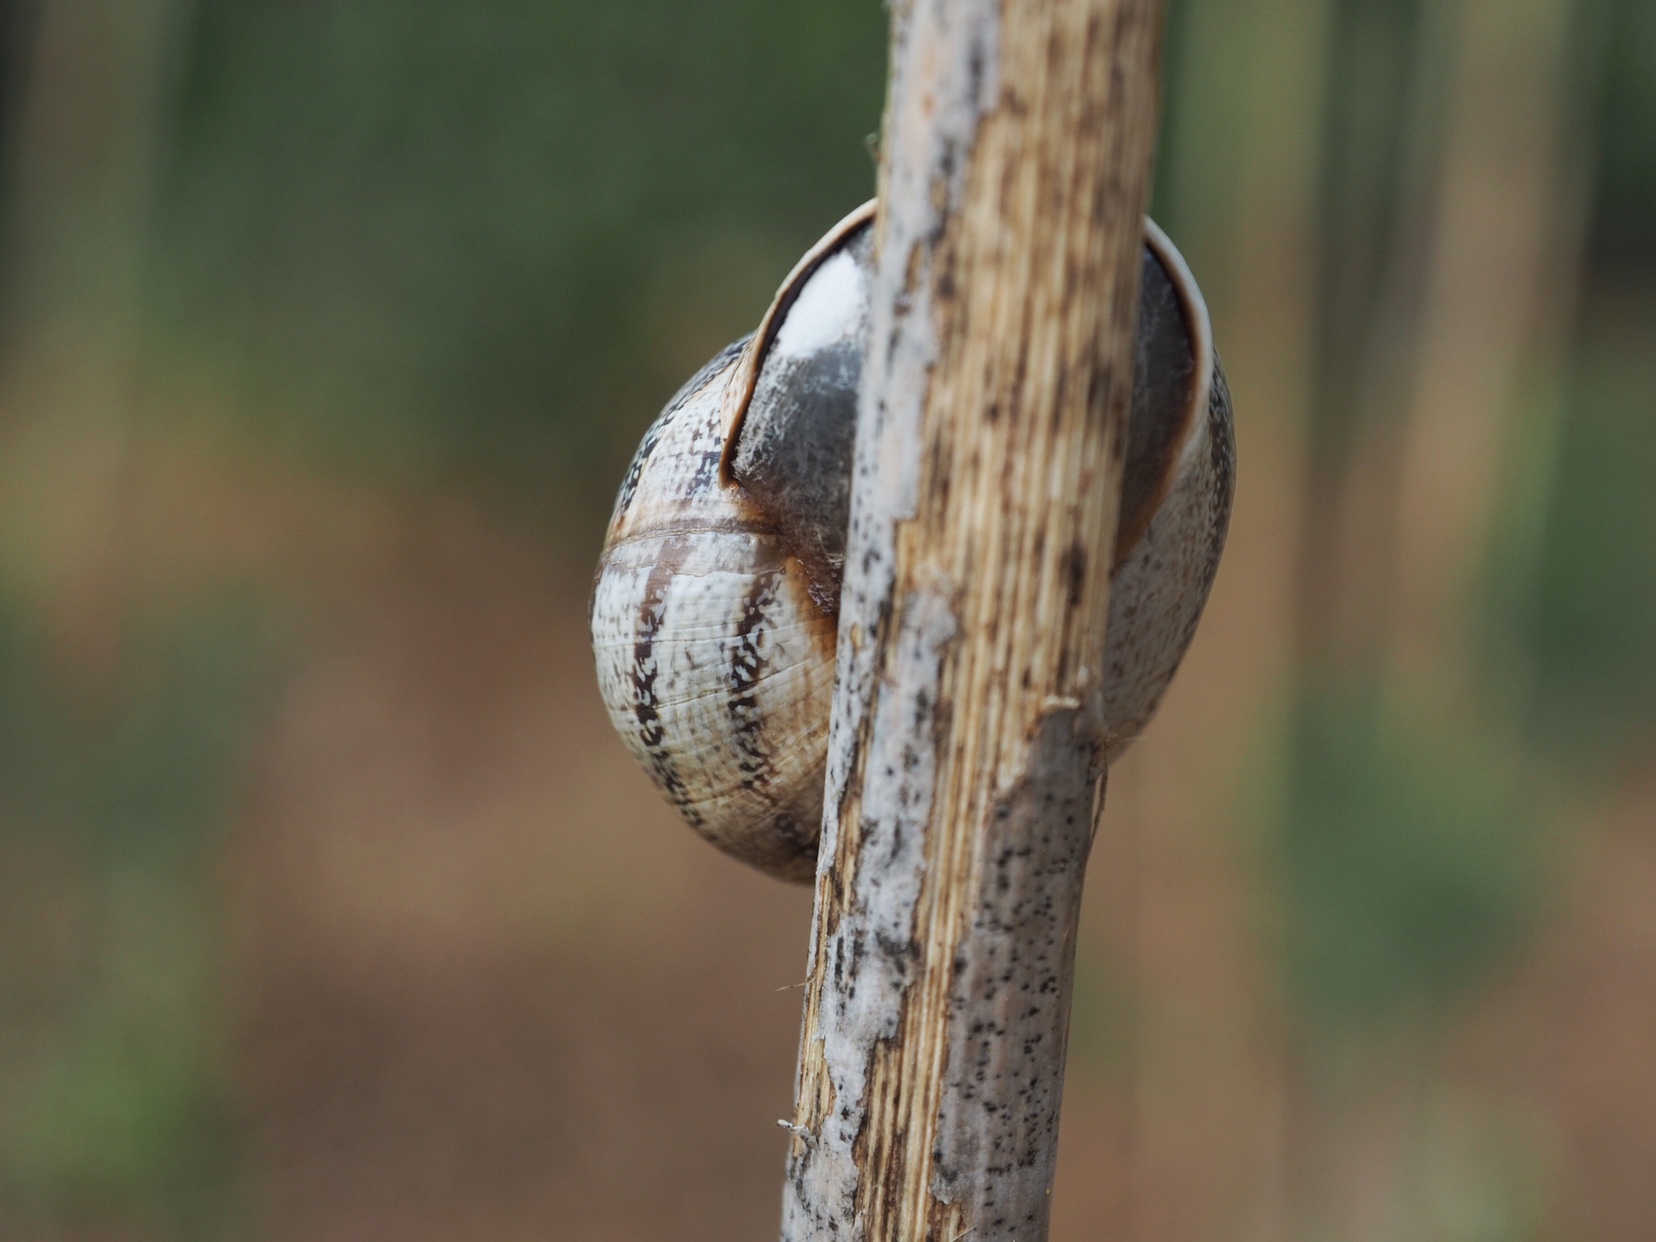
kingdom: Animalia
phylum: Mollusca
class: Gastropoda
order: Stylommatophora
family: Helicidae
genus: Otala
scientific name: Otala lactea
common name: Milk snail
